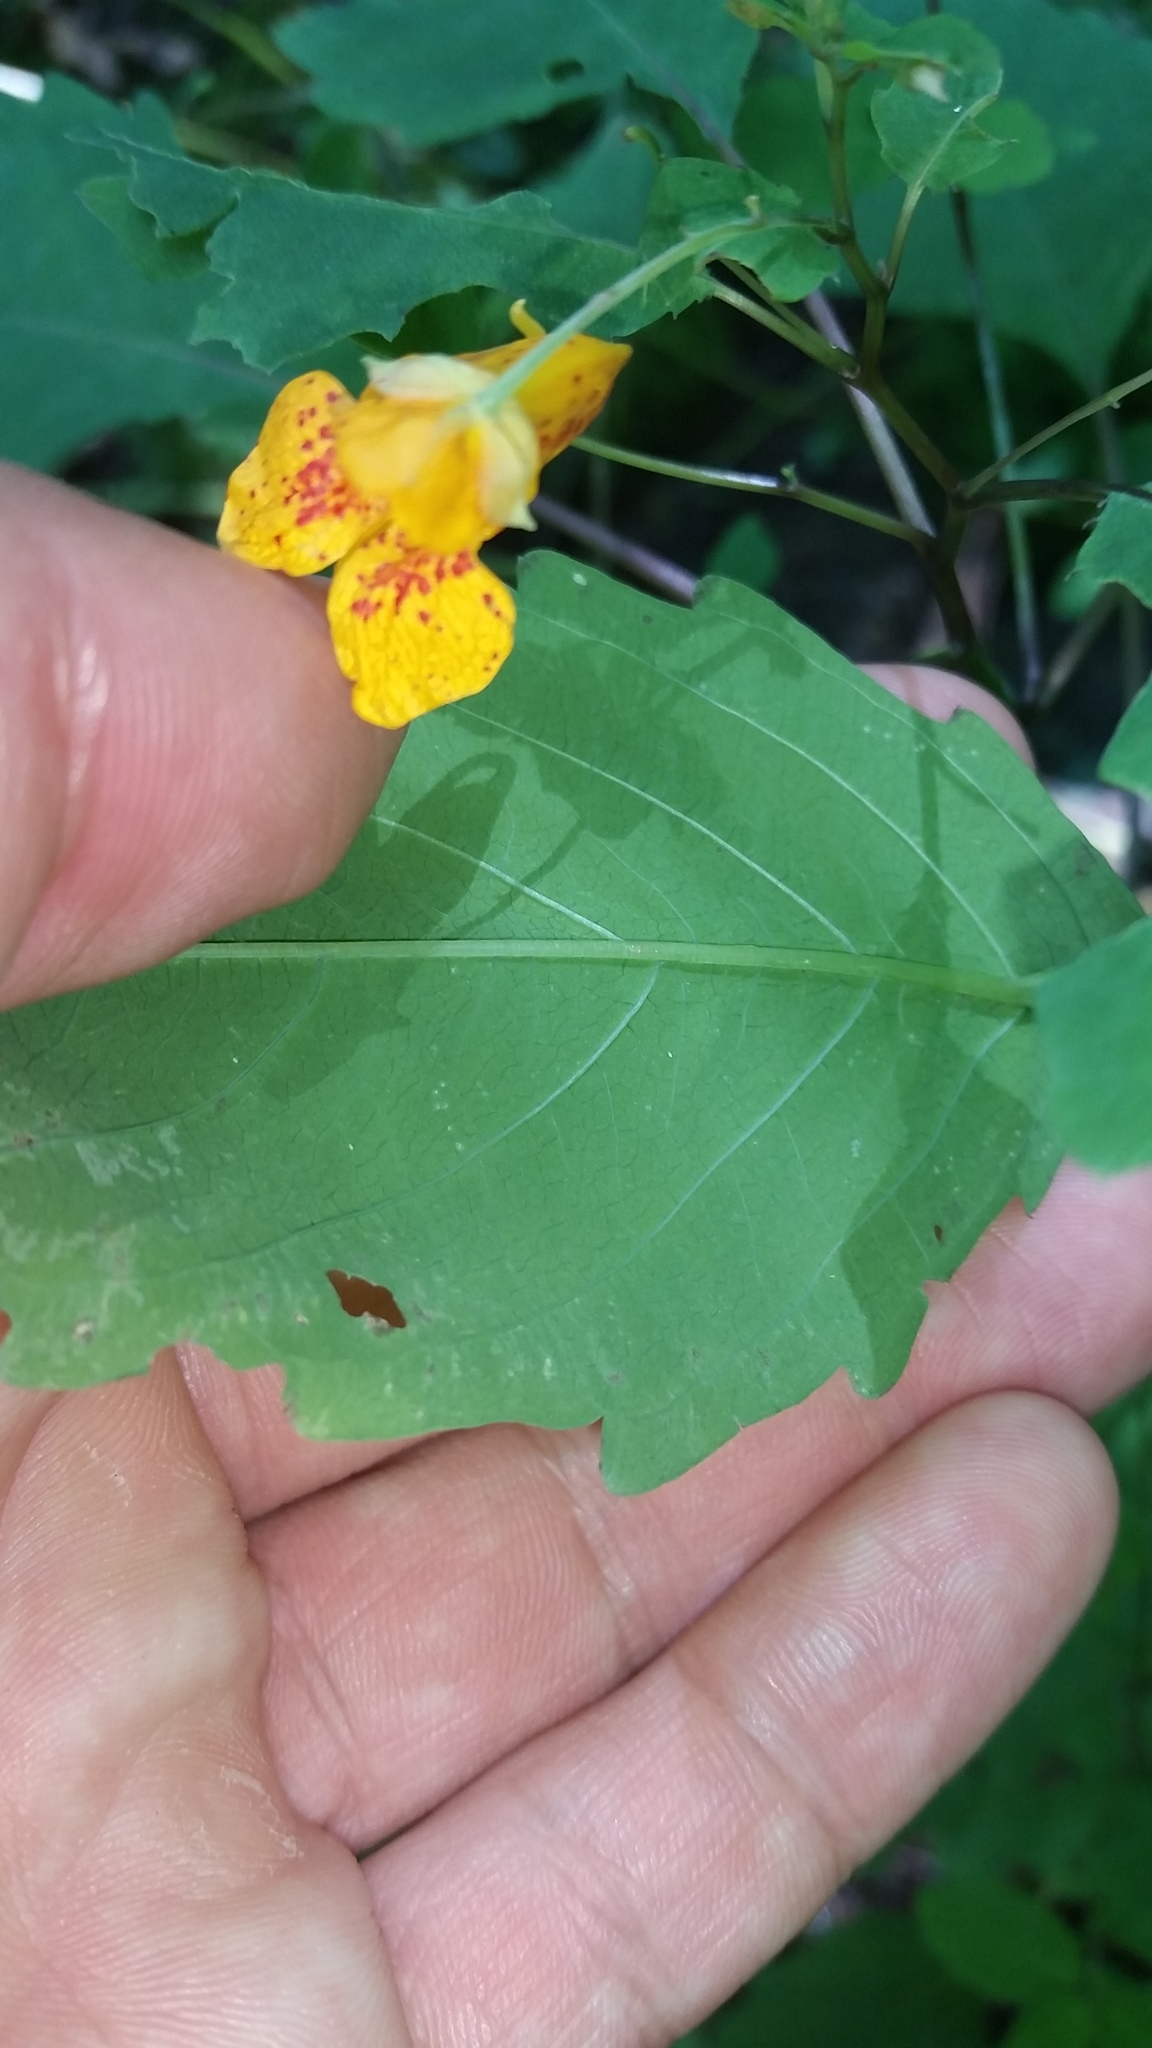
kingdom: Plantae
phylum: Tracheophyta
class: Magnoliopsida
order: Ericales
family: Balsaminaceae
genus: Impatiens
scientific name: Impatiens capensis
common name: Orange balsam
